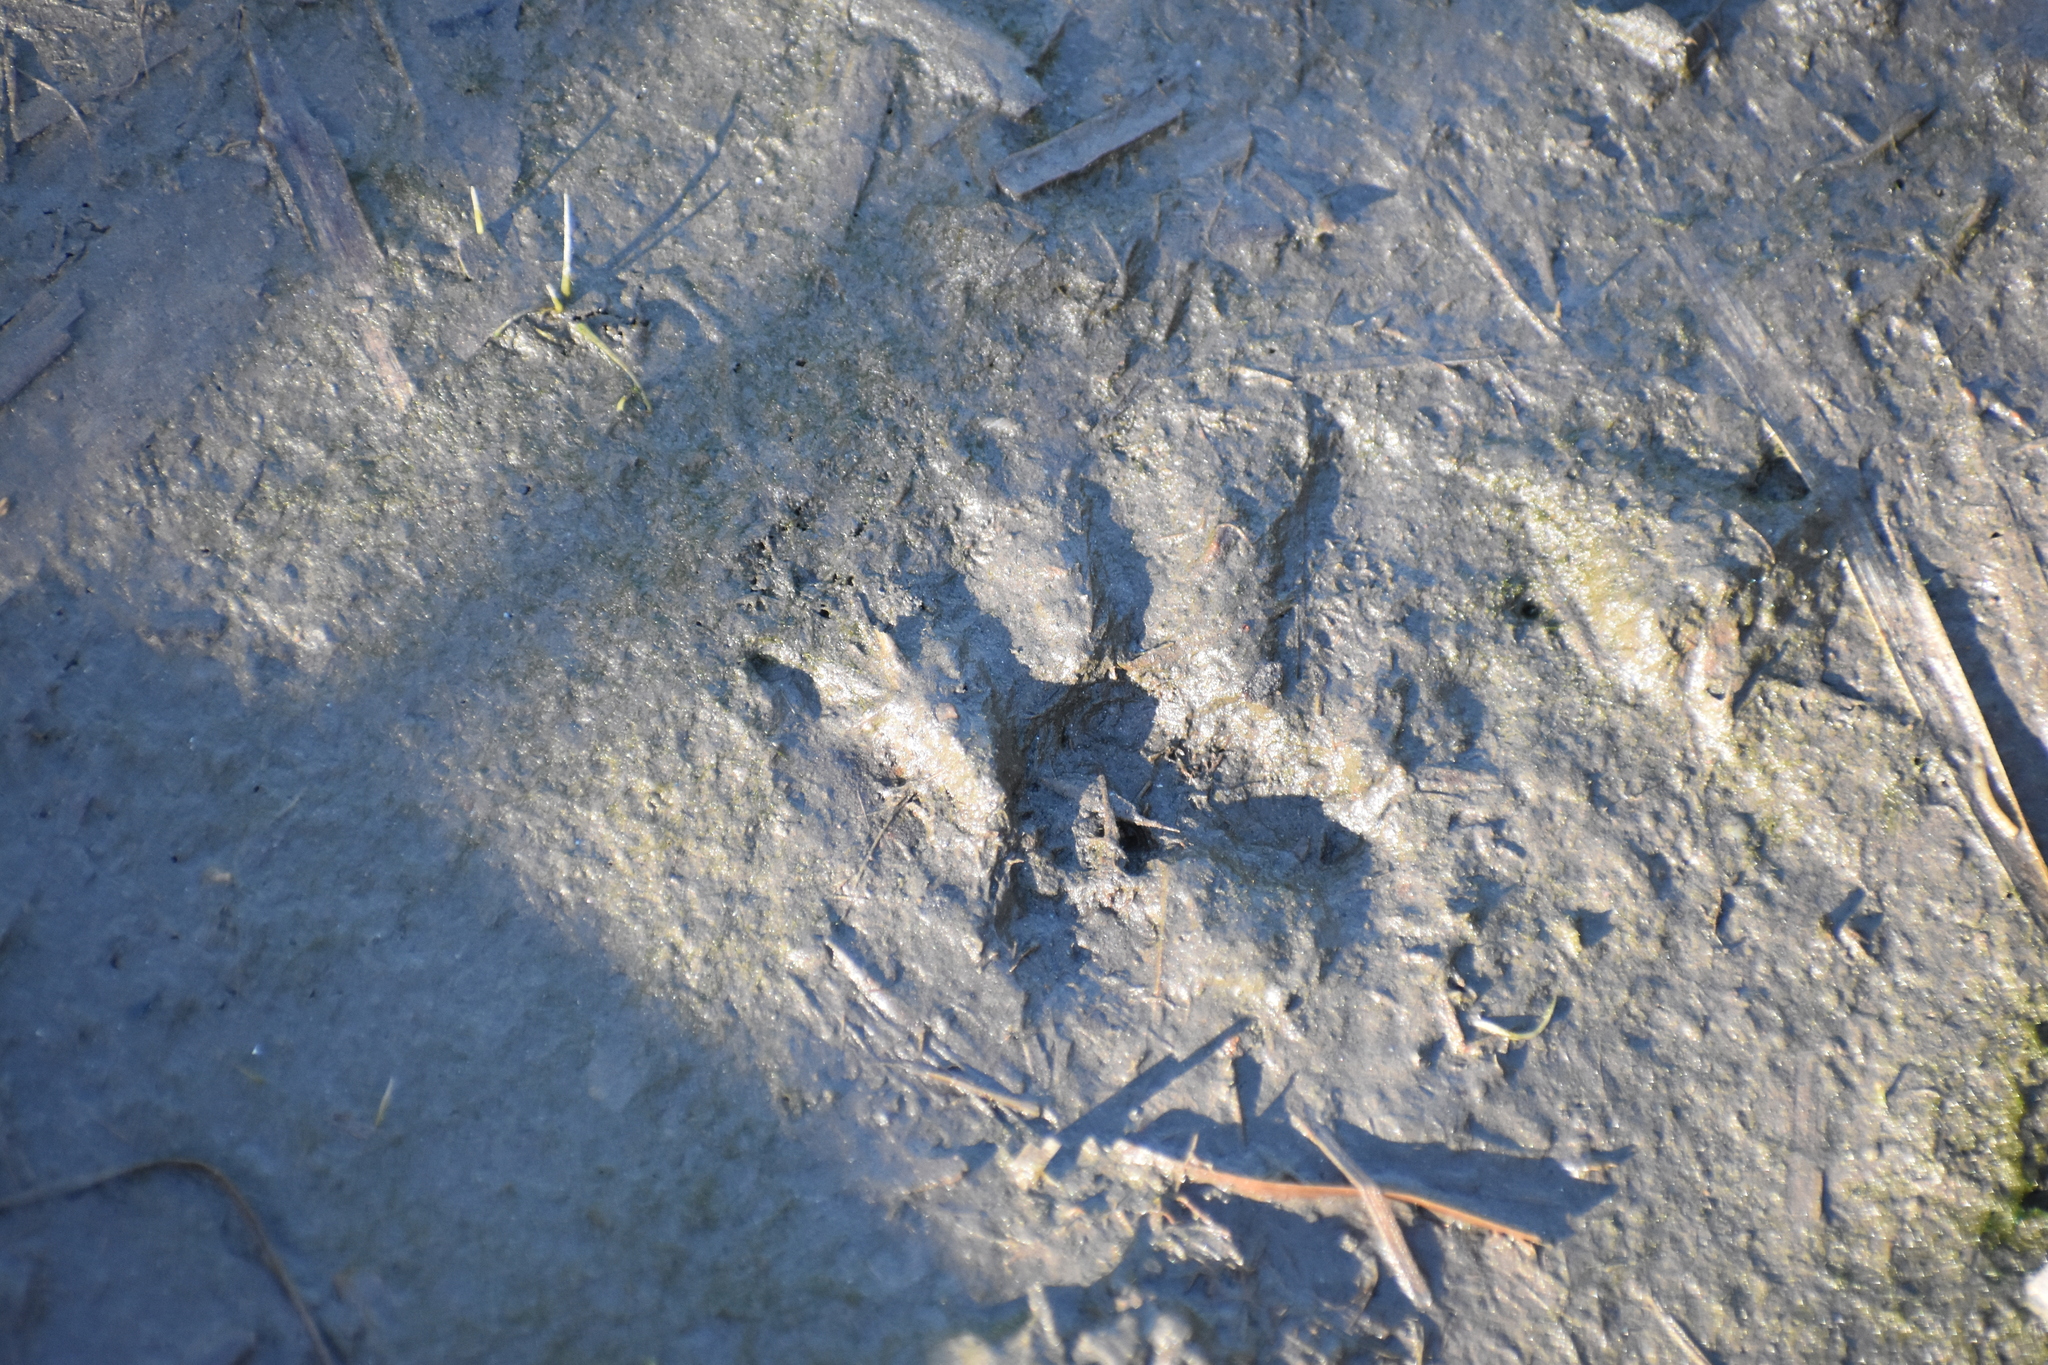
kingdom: Animalia
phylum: Chordata
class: Mammalia
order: Carnivora
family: Procyonidae
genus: Procyon
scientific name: Procyon lotor
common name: Raccoon
